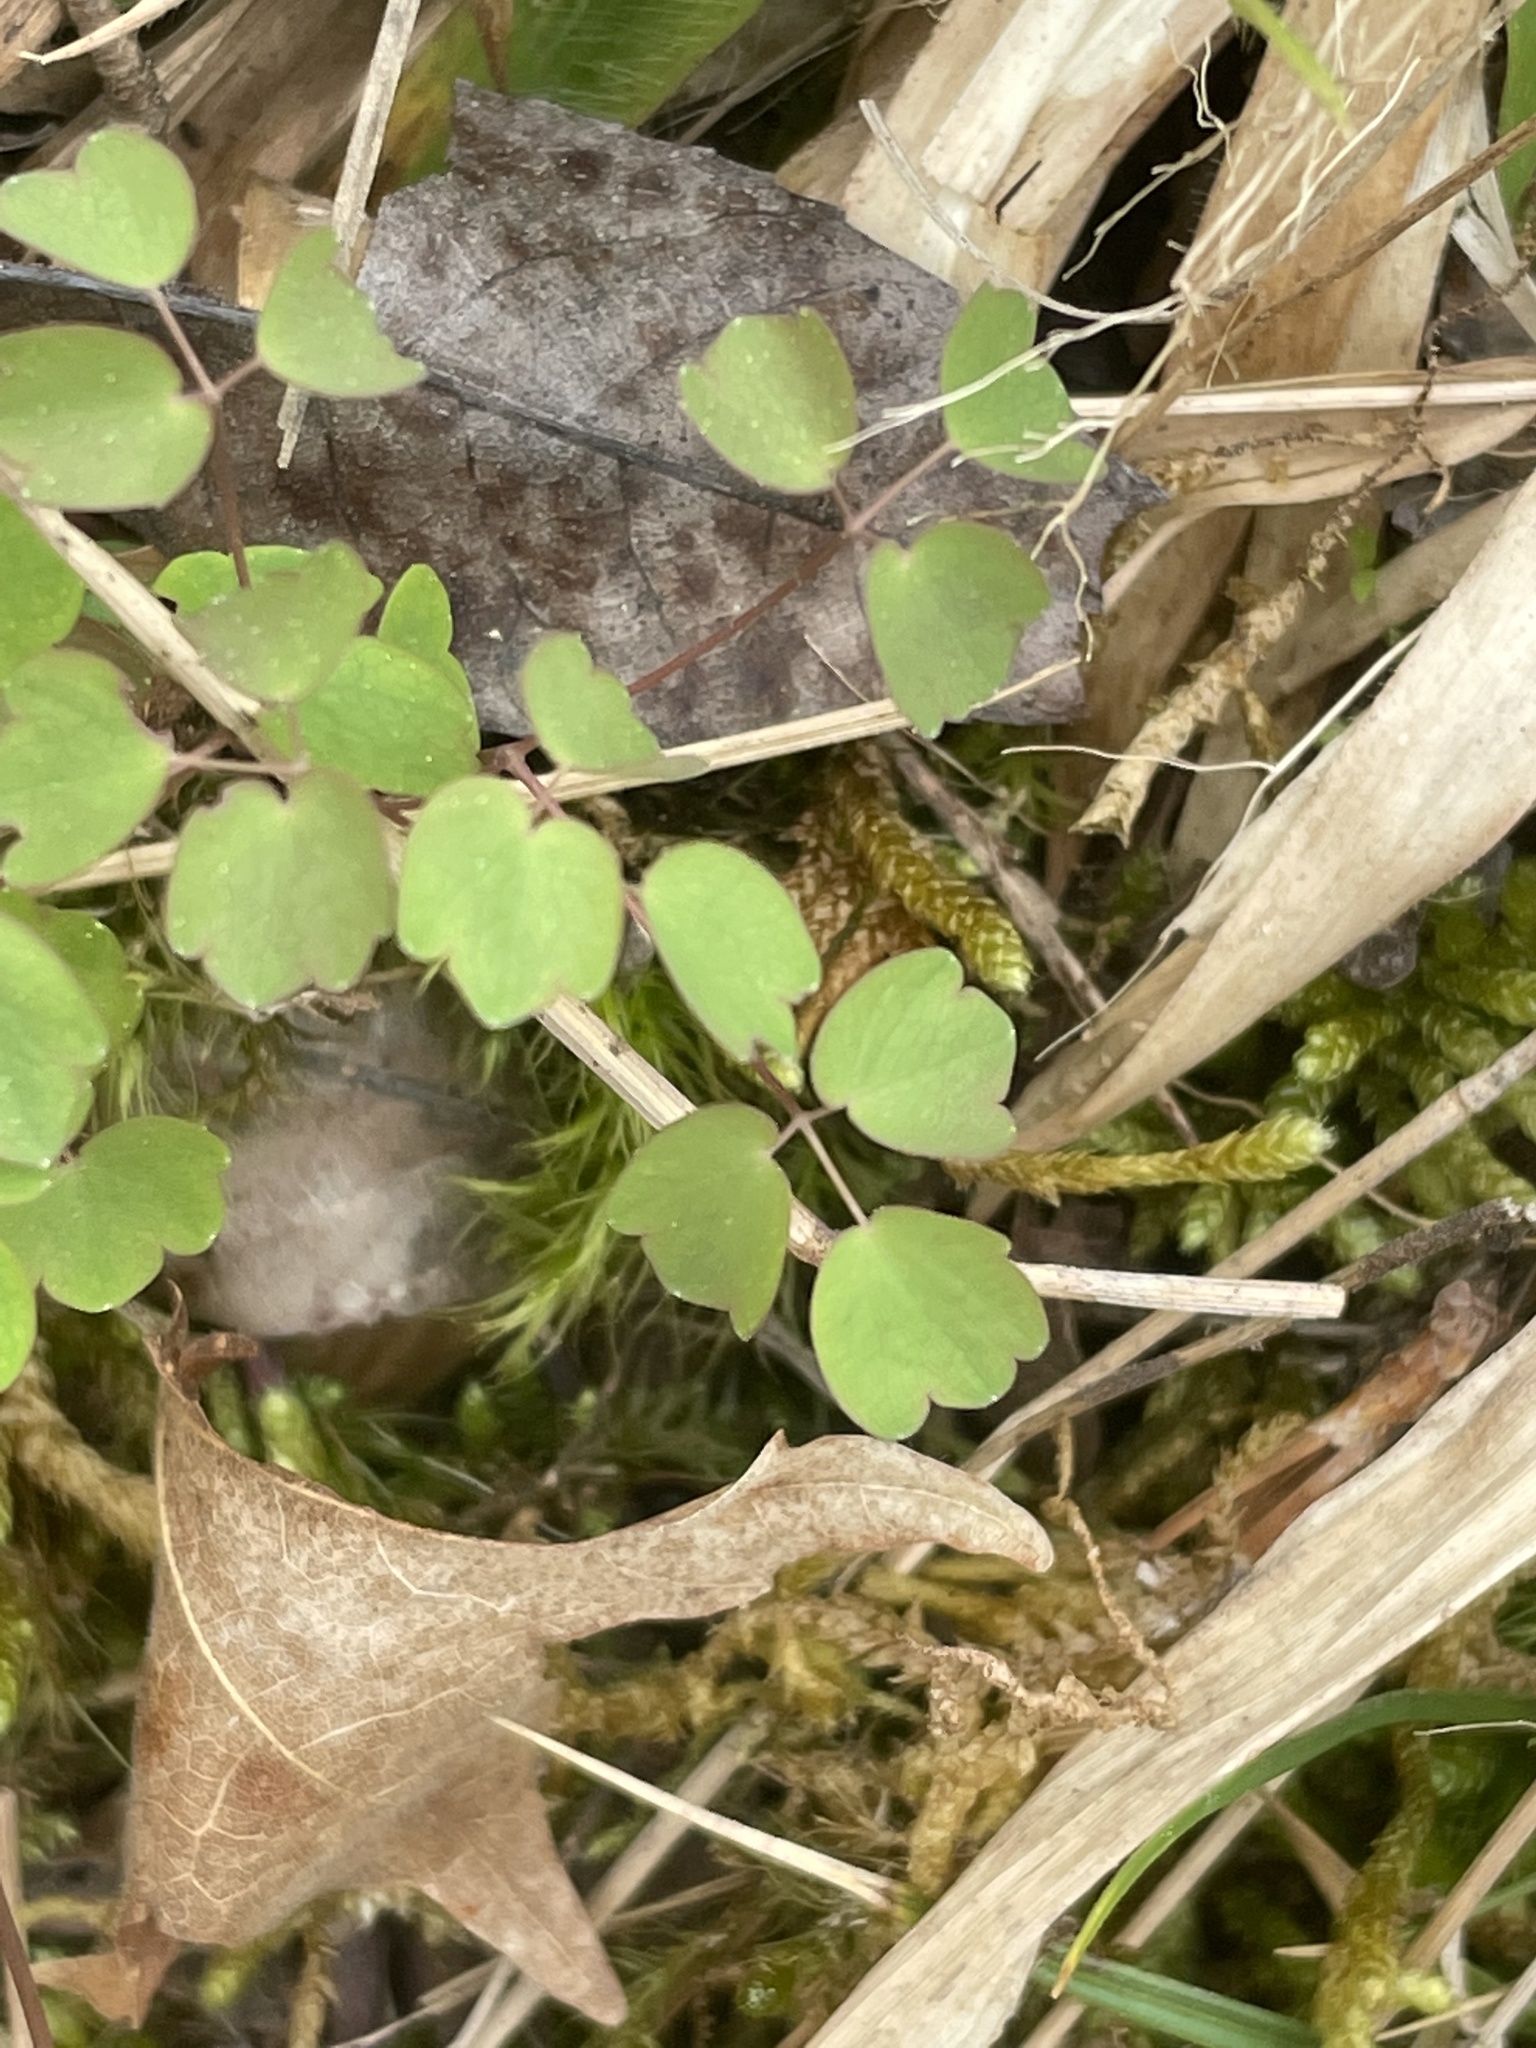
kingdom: Plantae
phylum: Tracheophyta
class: Magnoliopsida
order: Ranunculales
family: Ranunculaceae
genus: Thalictrum
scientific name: Thalictrum thalictroides
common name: Rue-anemone
